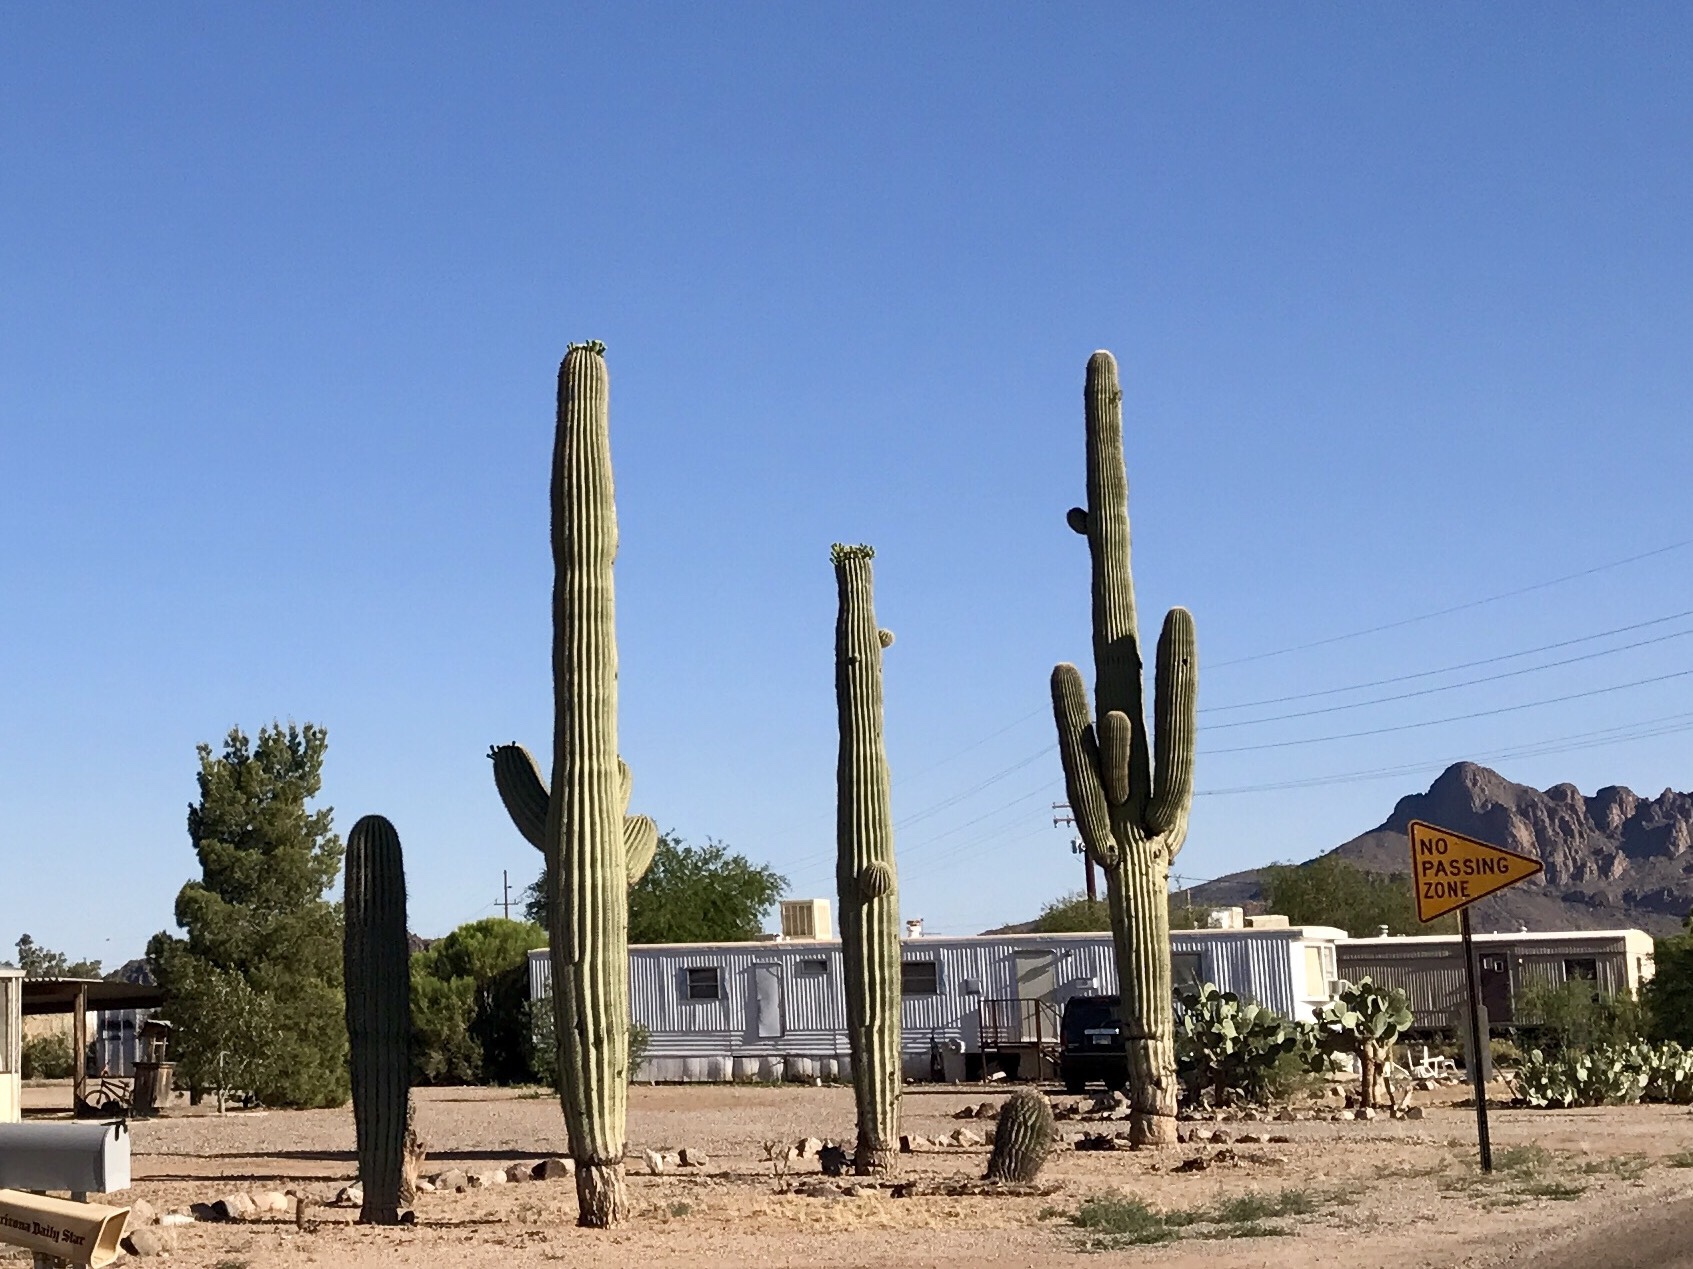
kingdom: Plantae
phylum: Tracheophyta
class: Magnoliopsida
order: Caryophyllales
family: Cactaceae
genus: Carnegiea
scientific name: Carnegiea gigantea
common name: Saguaro
